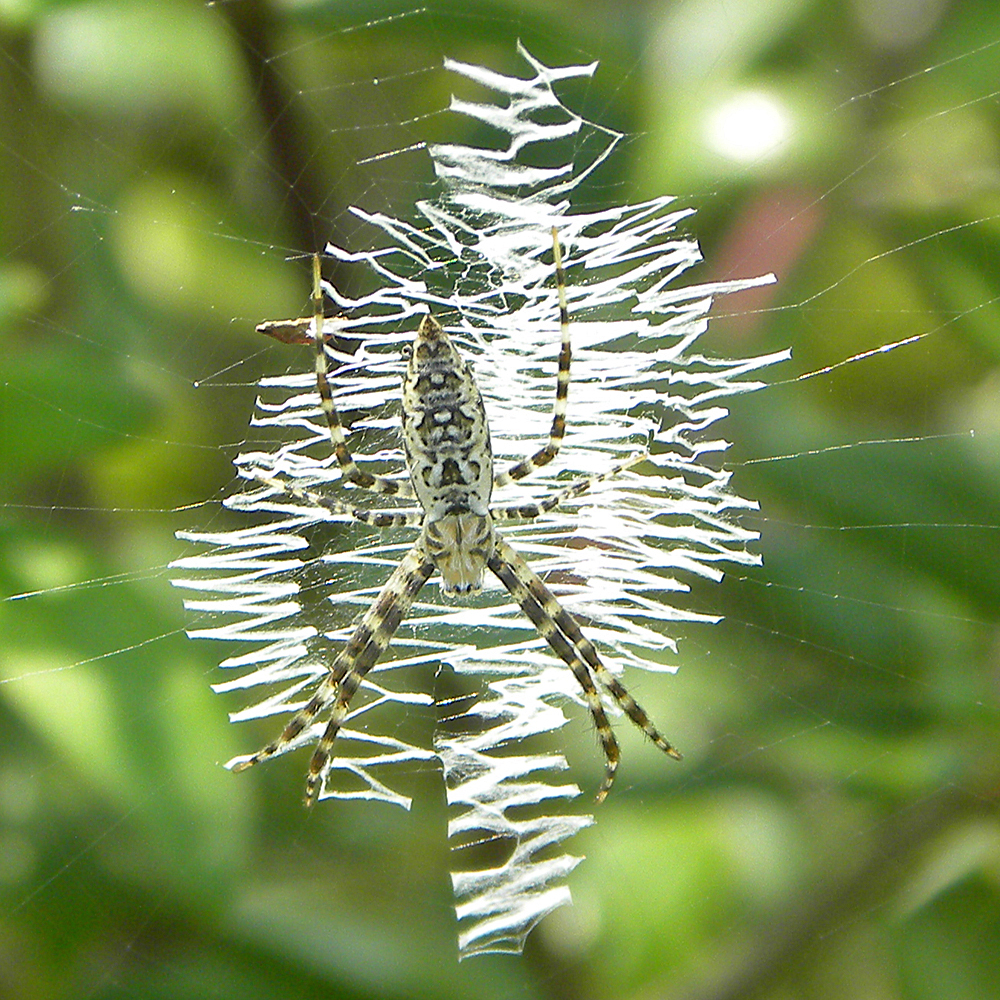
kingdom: Animalia
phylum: Arthropoda
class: Arachnida
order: Araneae
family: Araneidae
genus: Argiope
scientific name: Argiope aurantia
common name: Orb weavers
